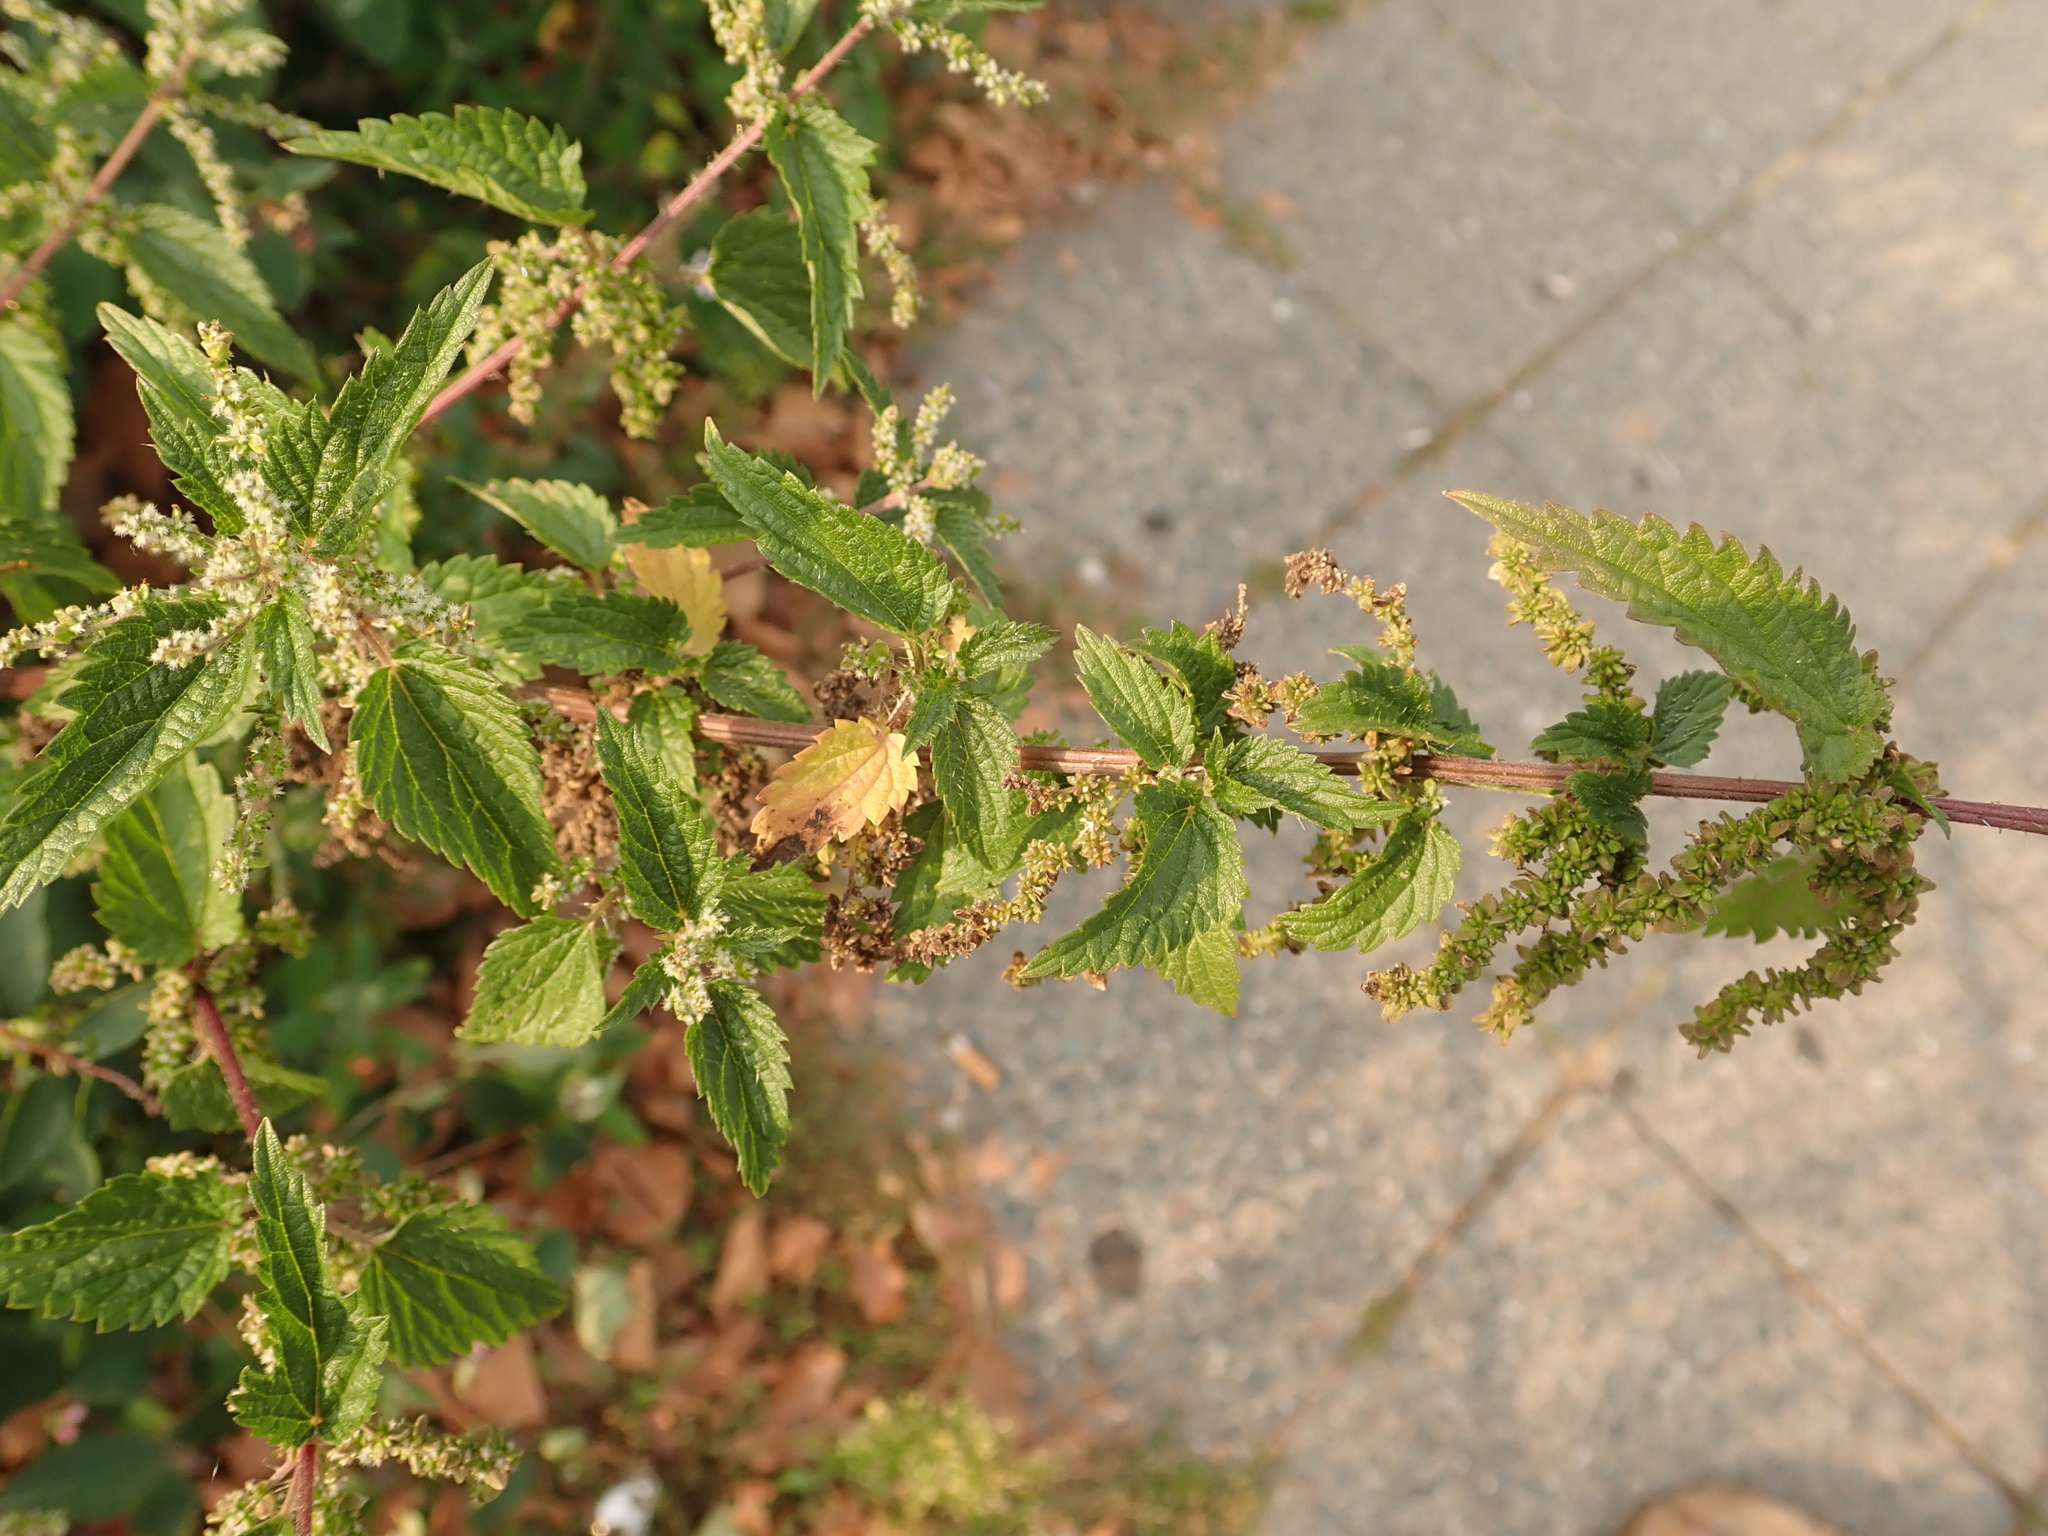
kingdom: Plantae
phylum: Tracheophyta
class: Magnoliopsida
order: Rosales
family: Urticaceae
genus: Urtica
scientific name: Urtica dioica
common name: Common nettle
